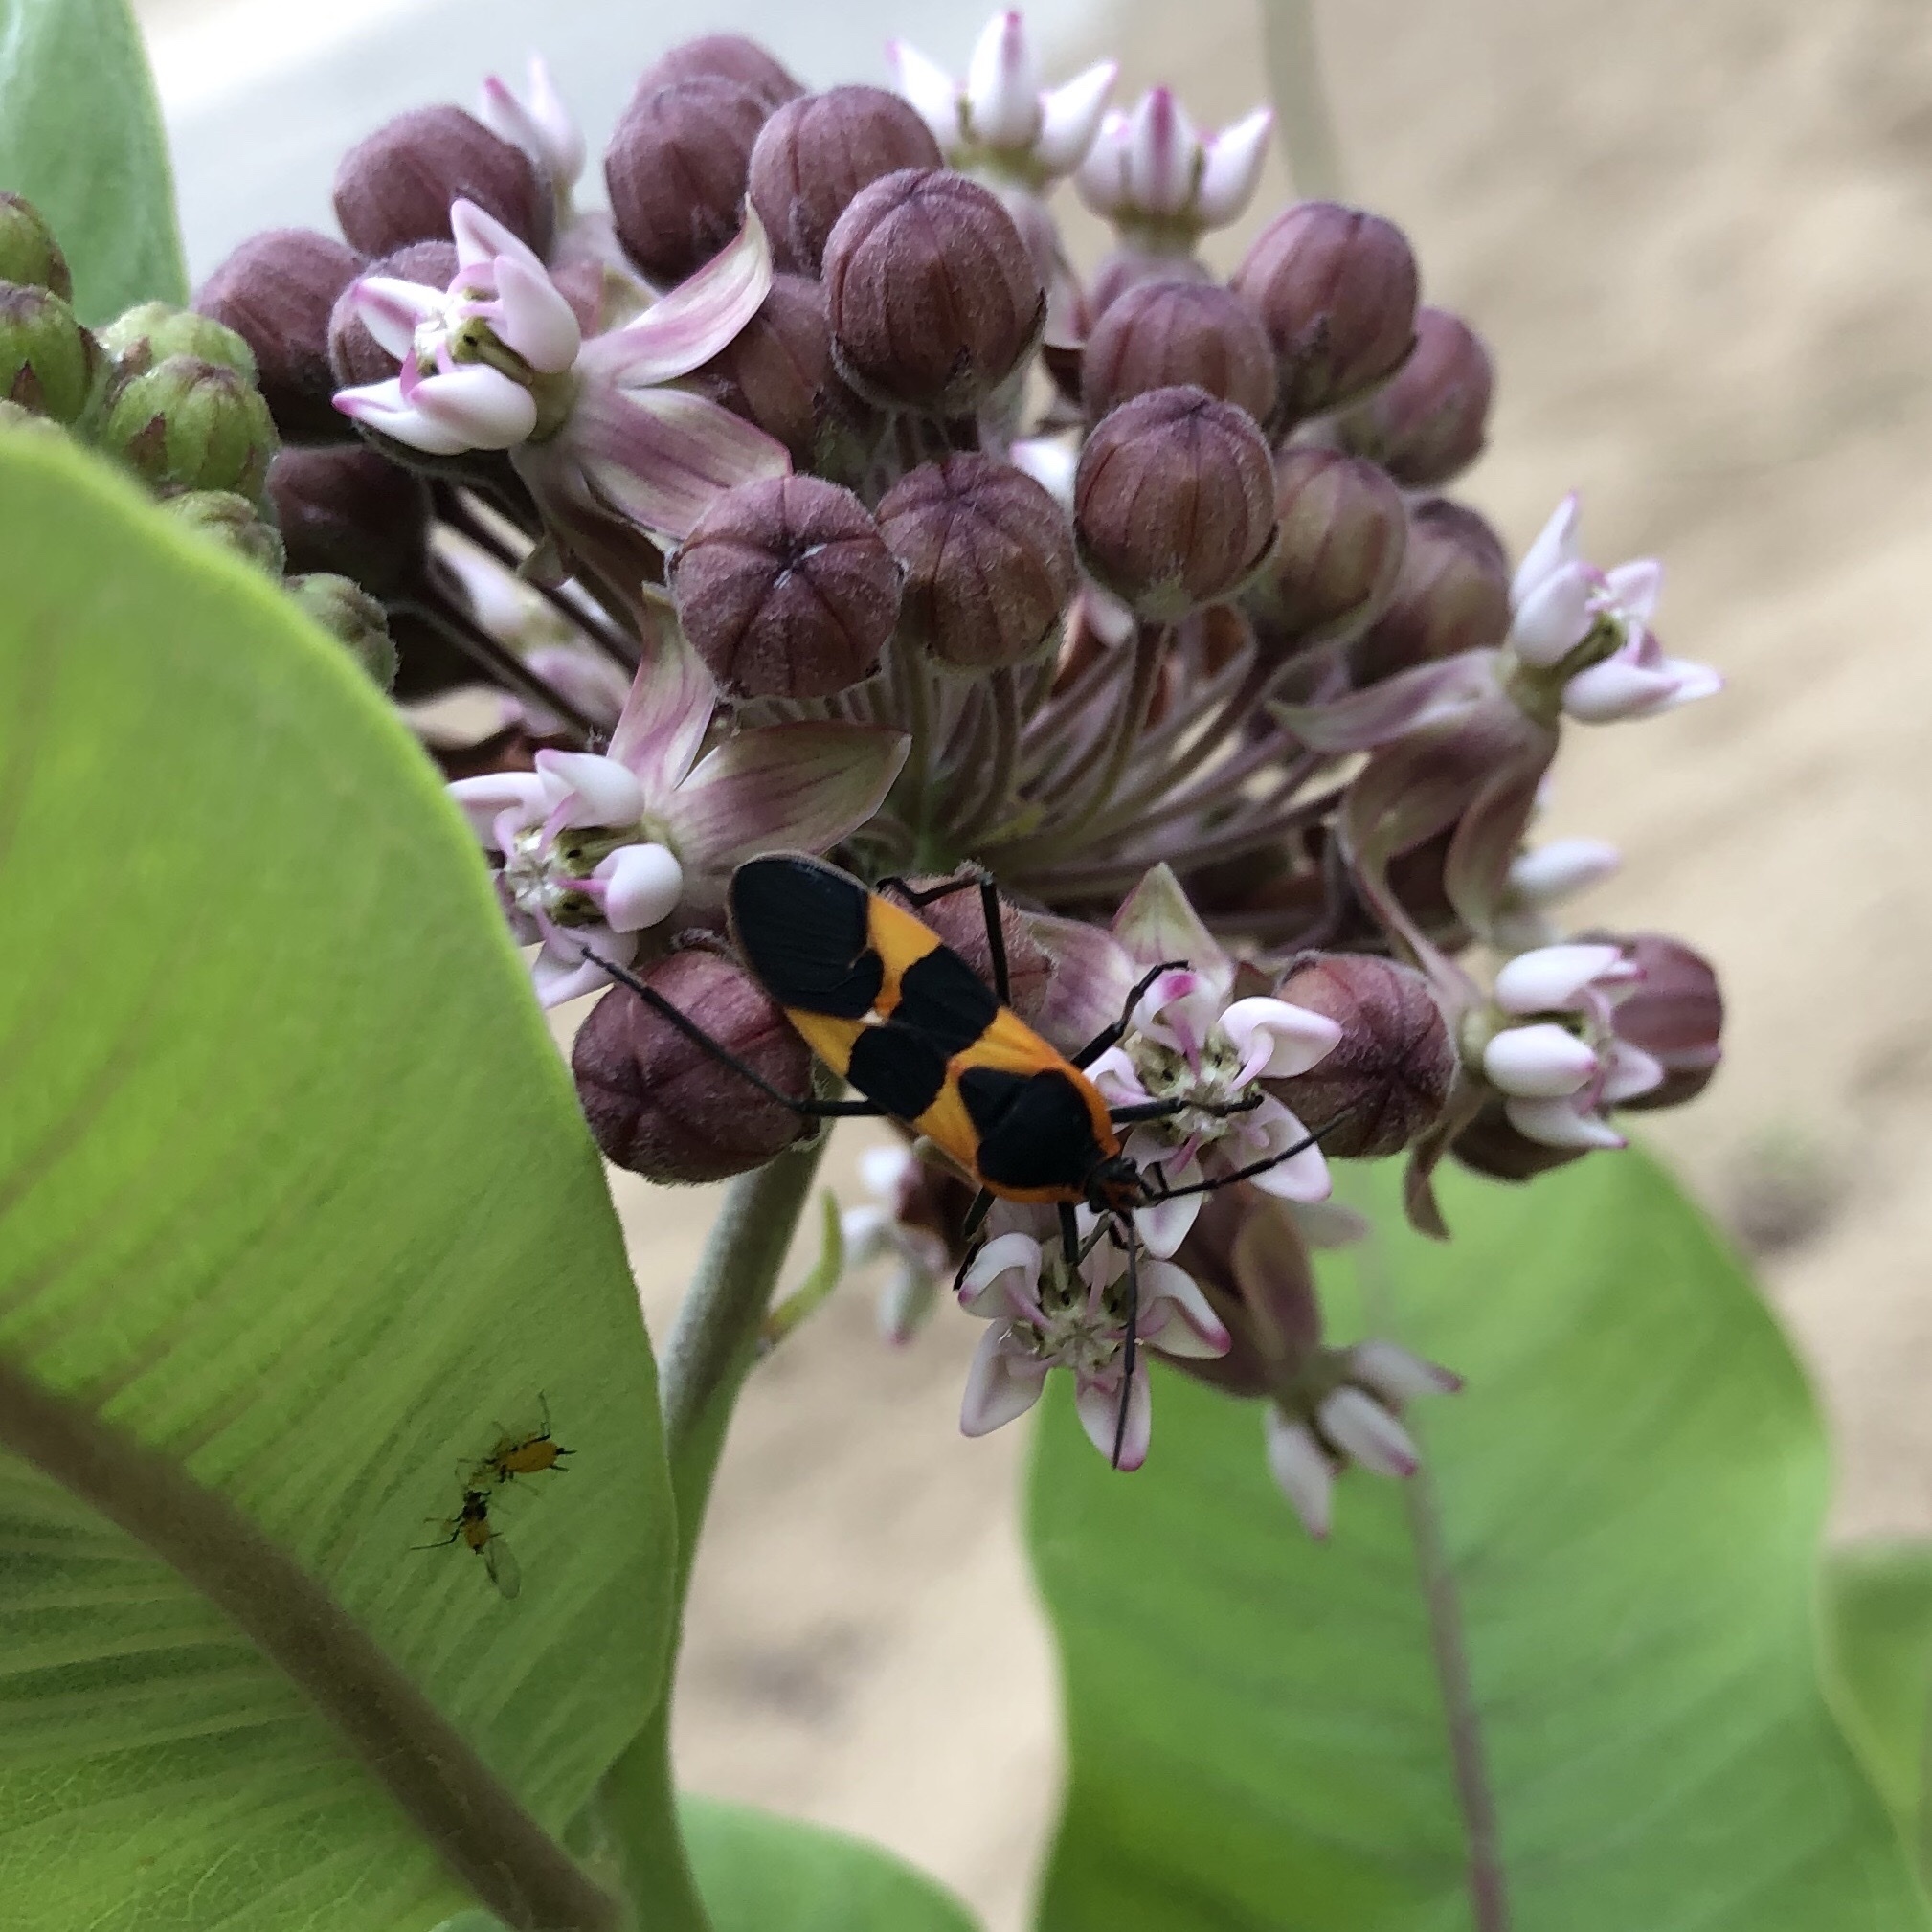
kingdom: Animalia
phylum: Arthropoda
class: Insecta
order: Hemiptera
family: Lygaeidae
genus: Oncopeltus
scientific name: Oncopeltus fasciatus
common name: Large milkweed bug
